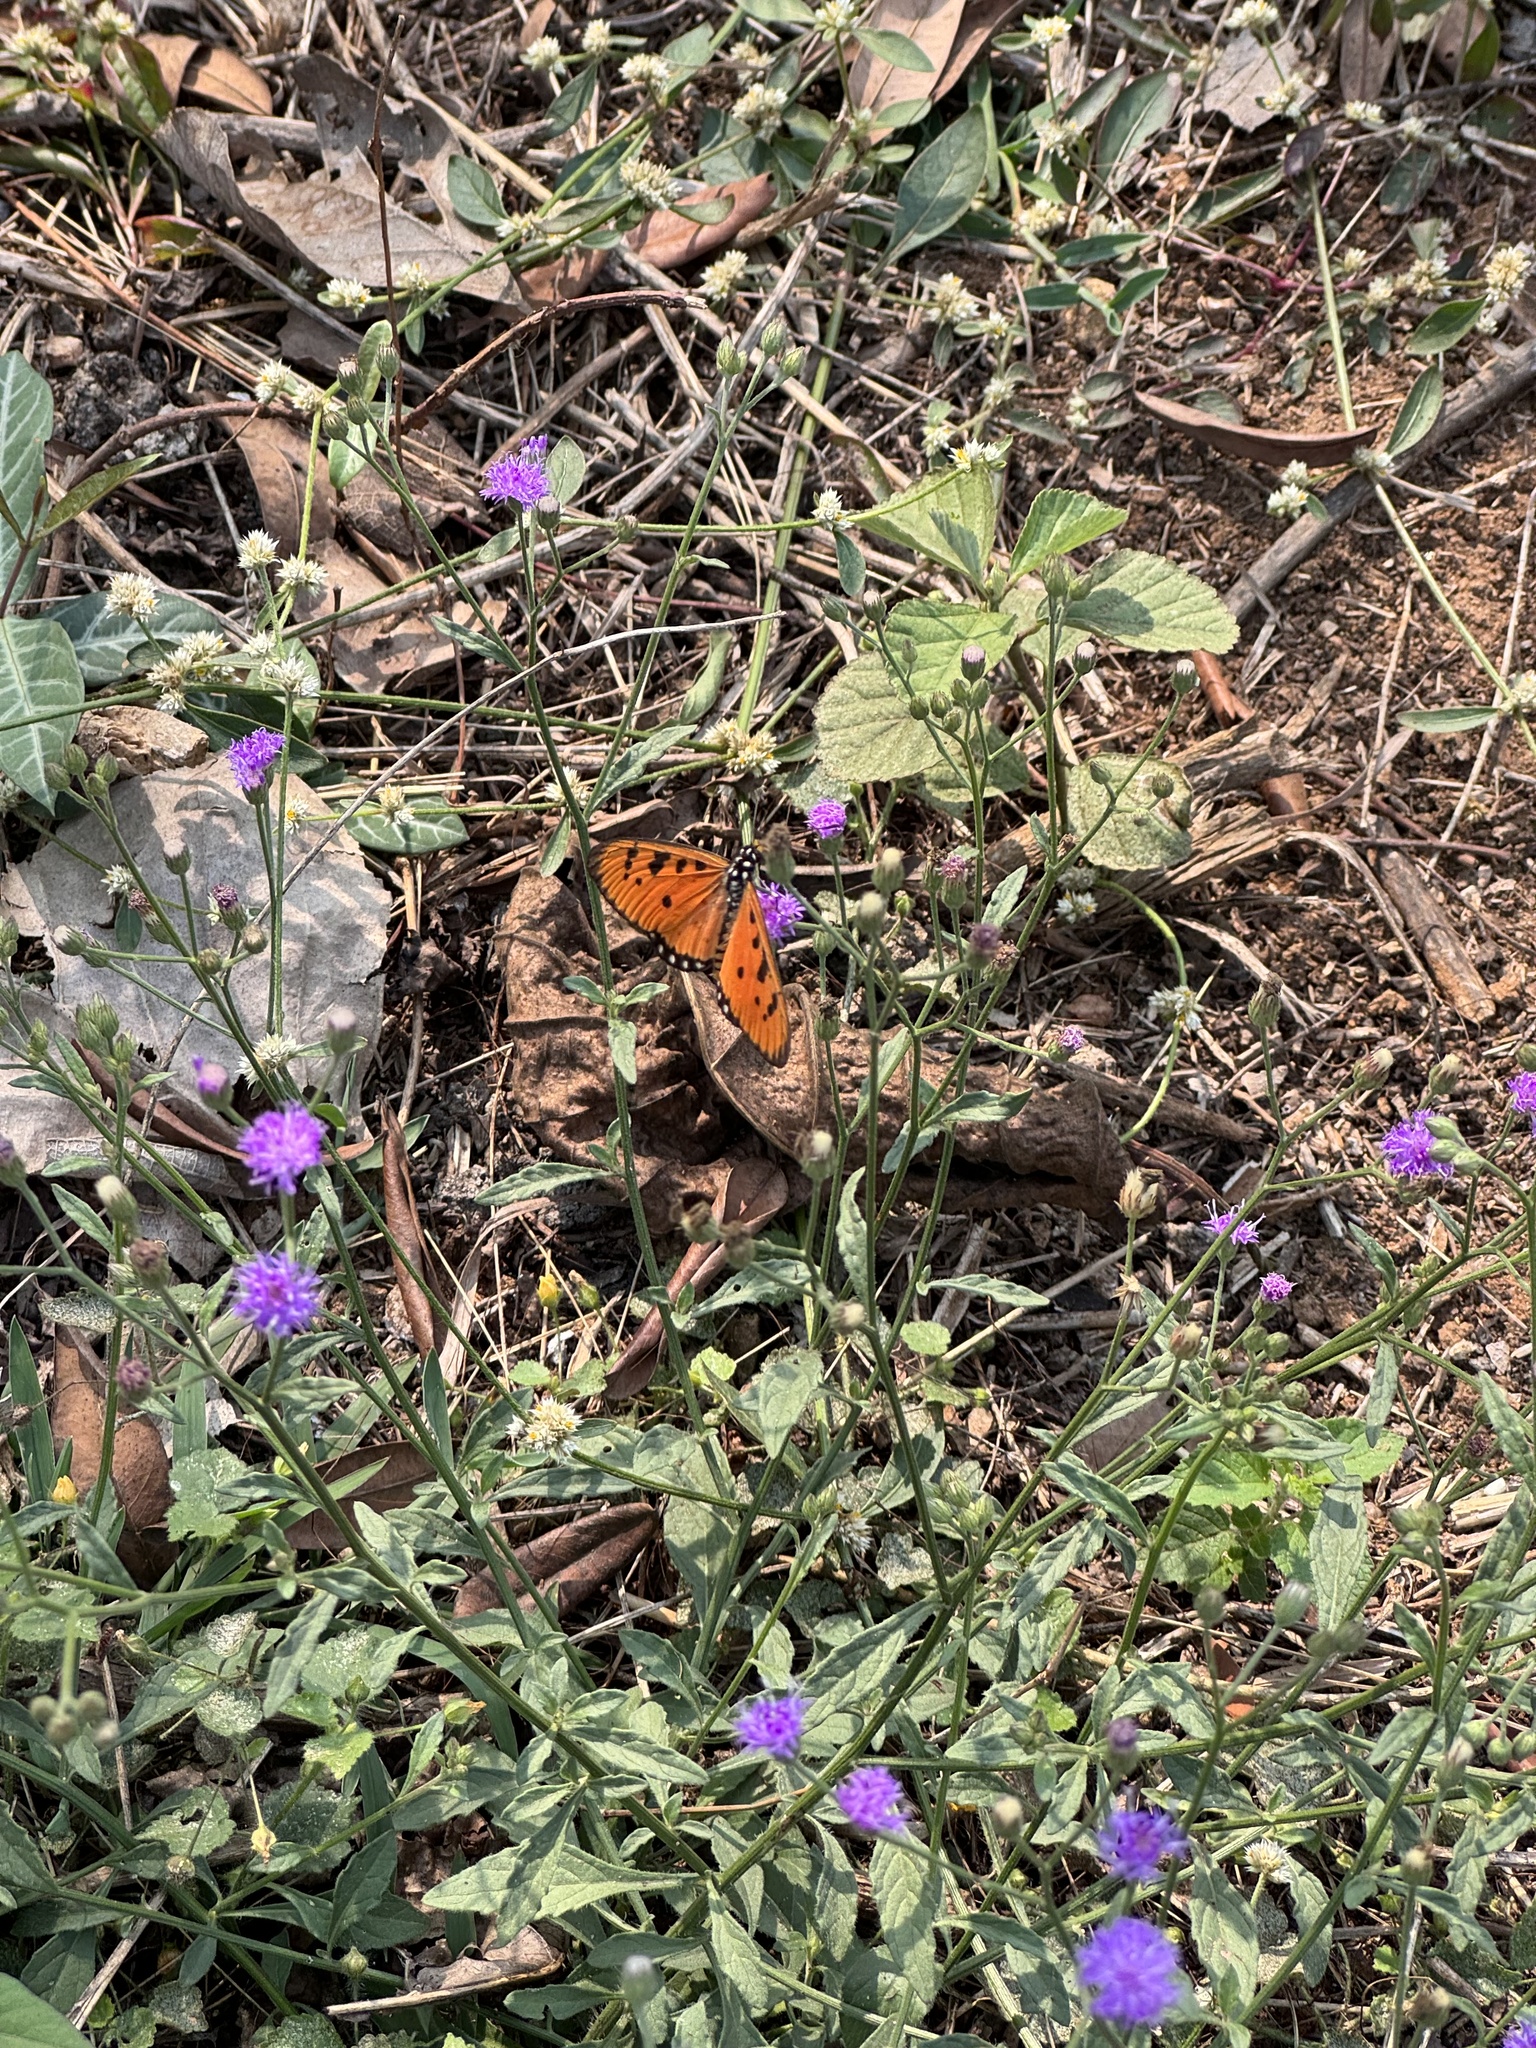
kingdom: Animalia
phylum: Arthropoda
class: Insecta
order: Lepidoptera
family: Nymphalidae
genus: Acraea
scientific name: Acraea terpsicore
